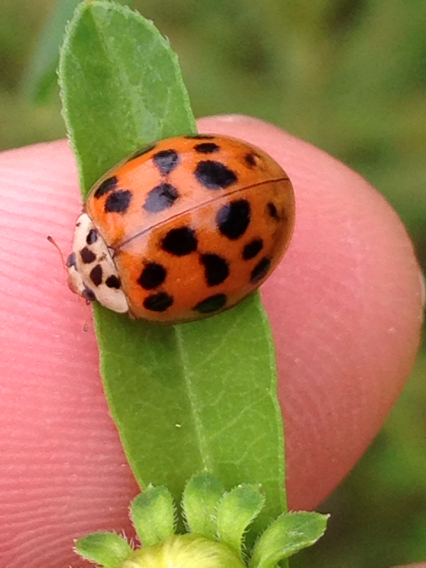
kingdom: Animalia
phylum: Arthropoda
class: Insecta
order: Coleoptera
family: Coccinellidae
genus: Harmonia
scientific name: Harmonia axyridis
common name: Harlequin ladybird
